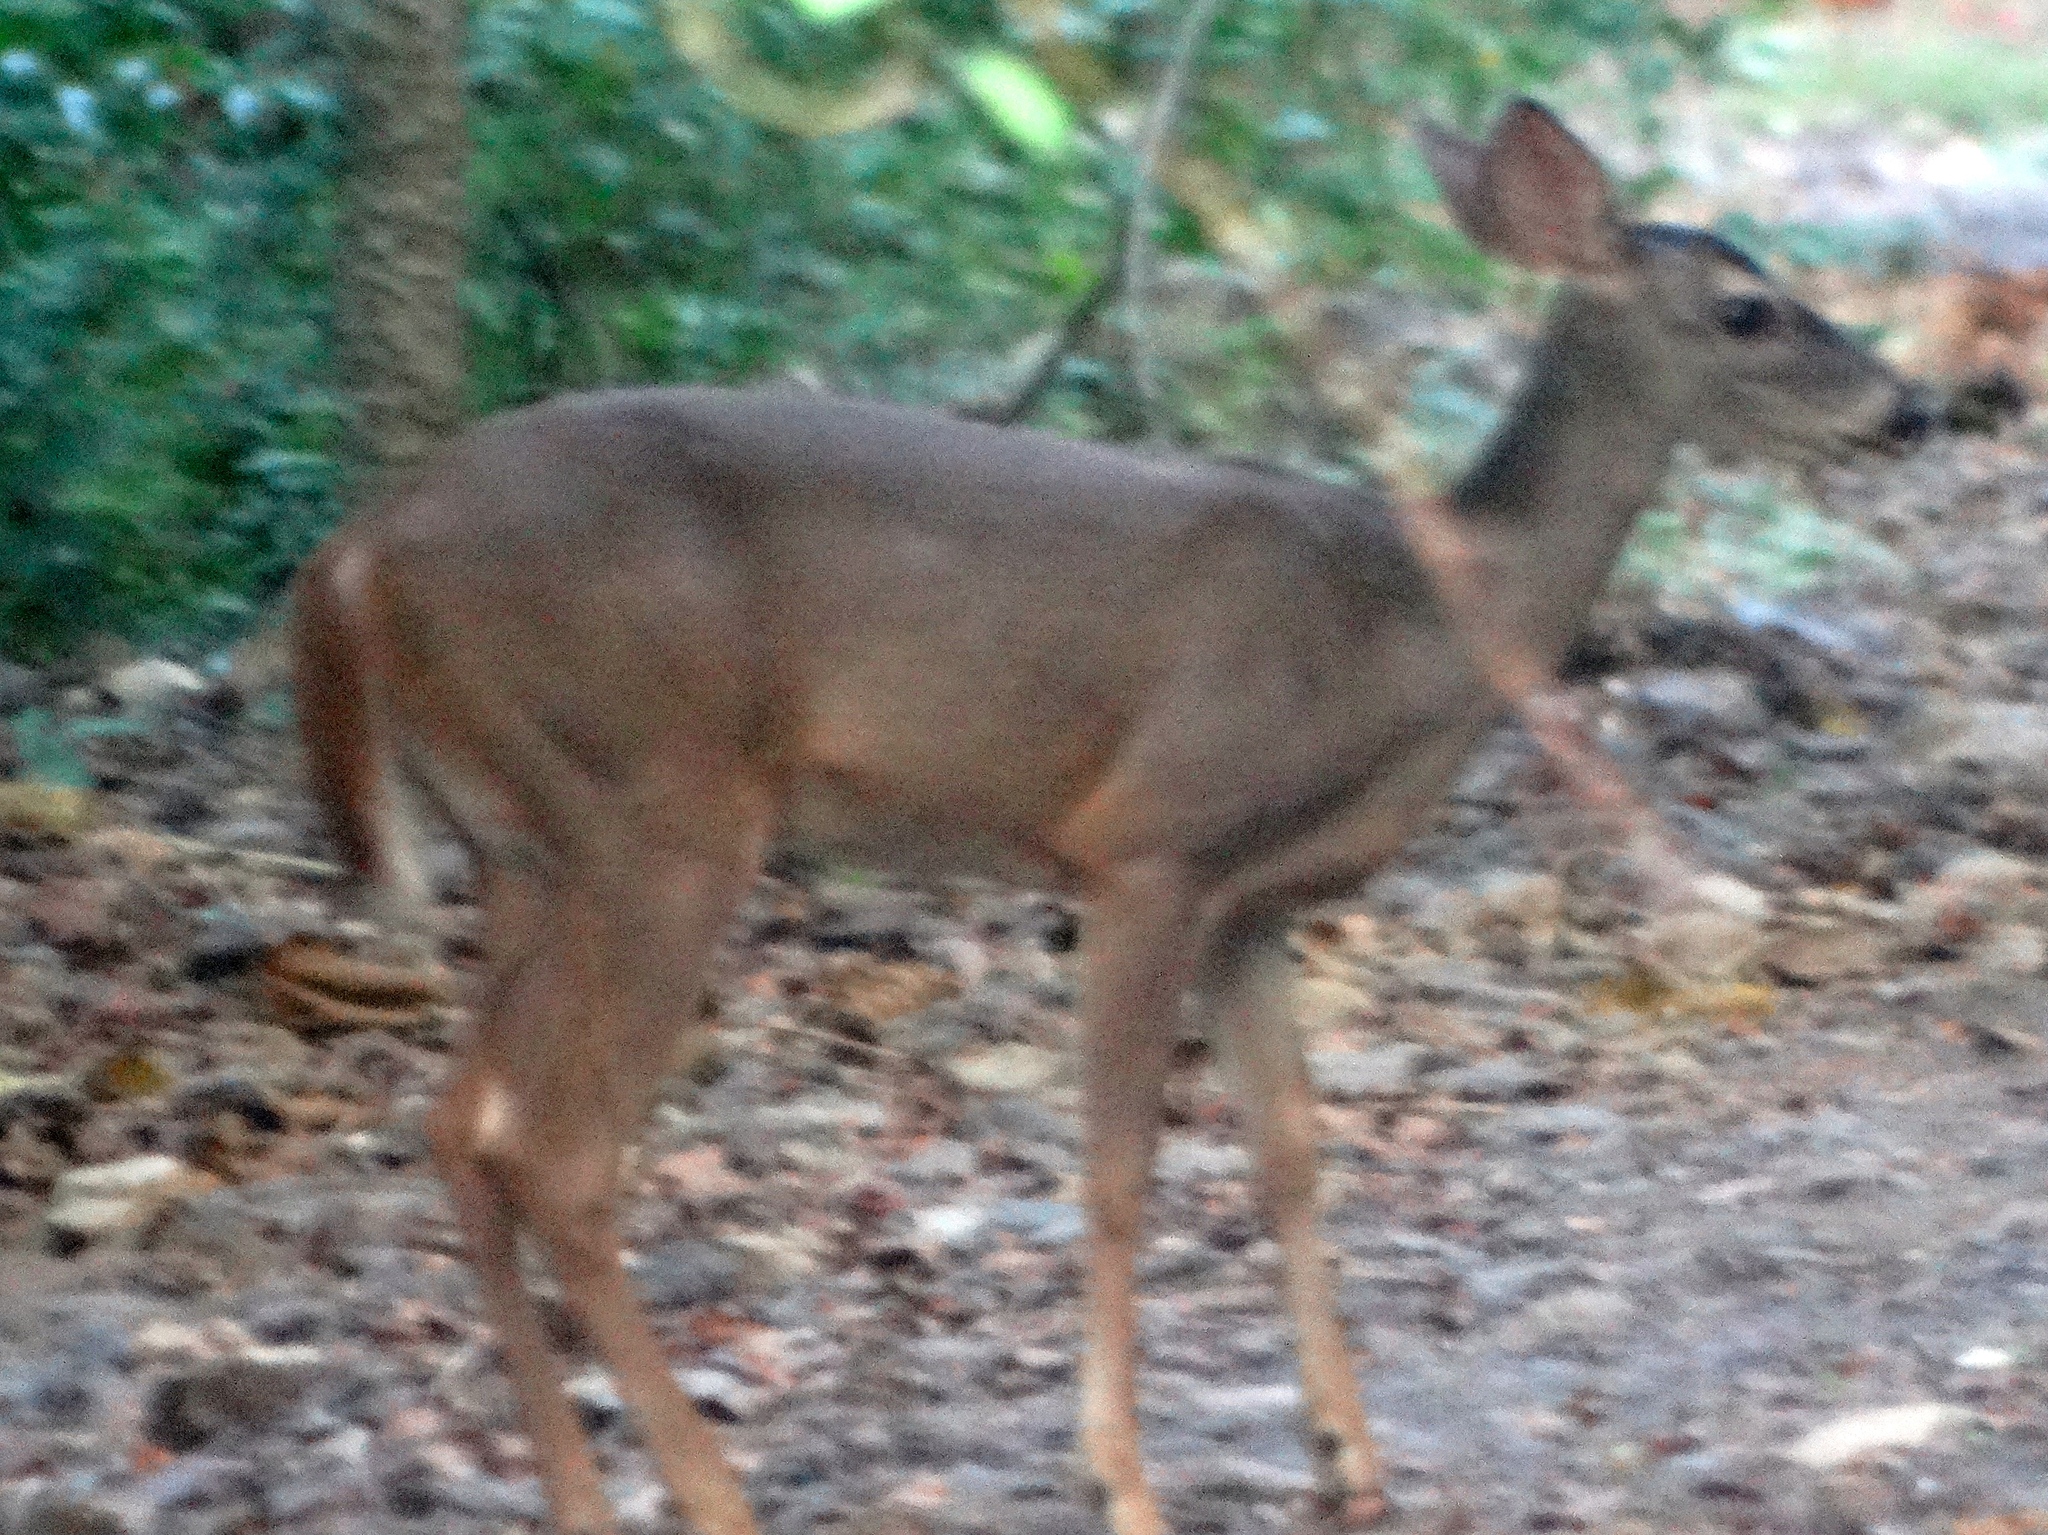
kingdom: Animalia
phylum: Chordata
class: Mammalia
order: Artiodactyla
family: Cervidae
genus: Odocoileus
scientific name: Odocoileus virginianus
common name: White-tailed deer
